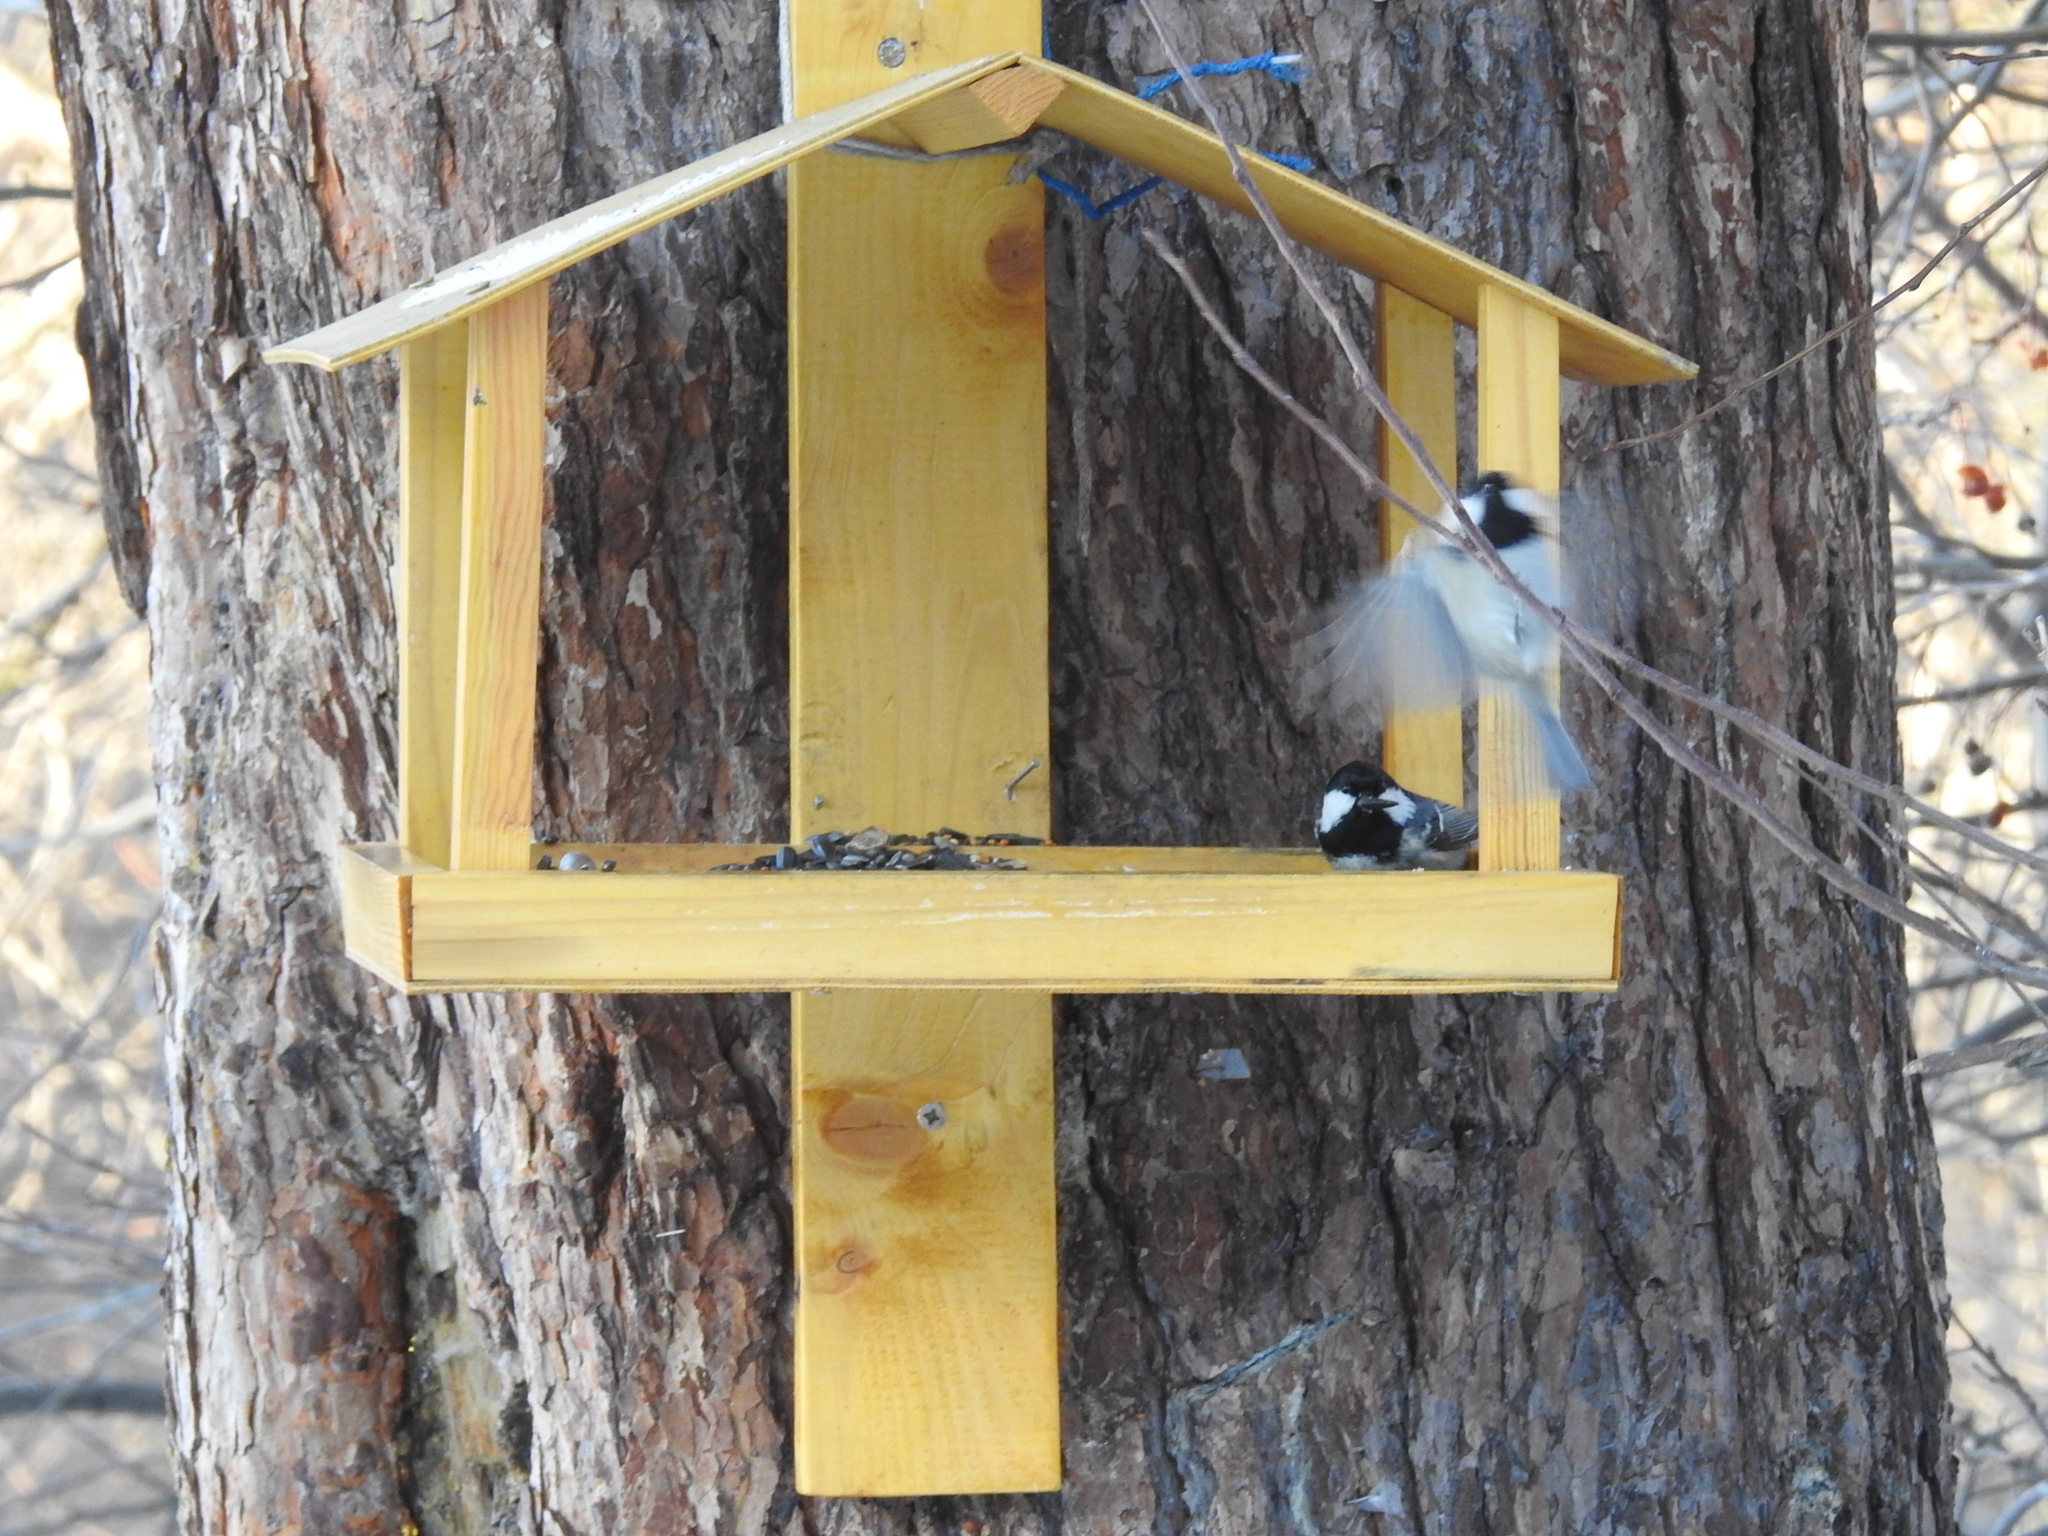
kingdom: Animalia
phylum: Chordata
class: Aves
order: Passeriformes
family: Paridae
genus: Periparus
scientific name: Periparus ater
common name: Coal tit
